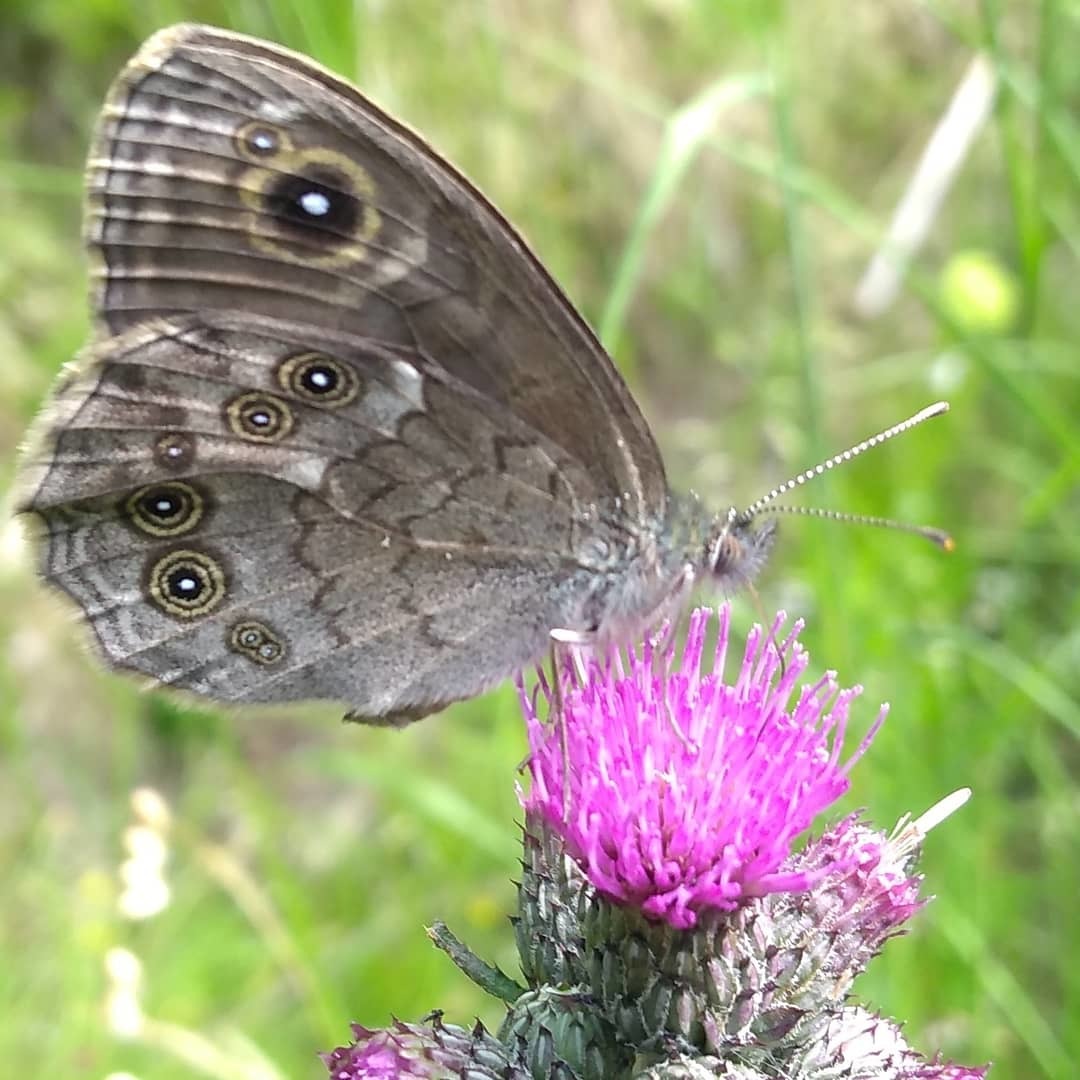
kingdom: Animalia
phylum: Arthropoda
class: Insecta
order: Lepidoptera
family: Nymphalidae
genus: Pararge
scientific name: Pararge Lasiommata maera
